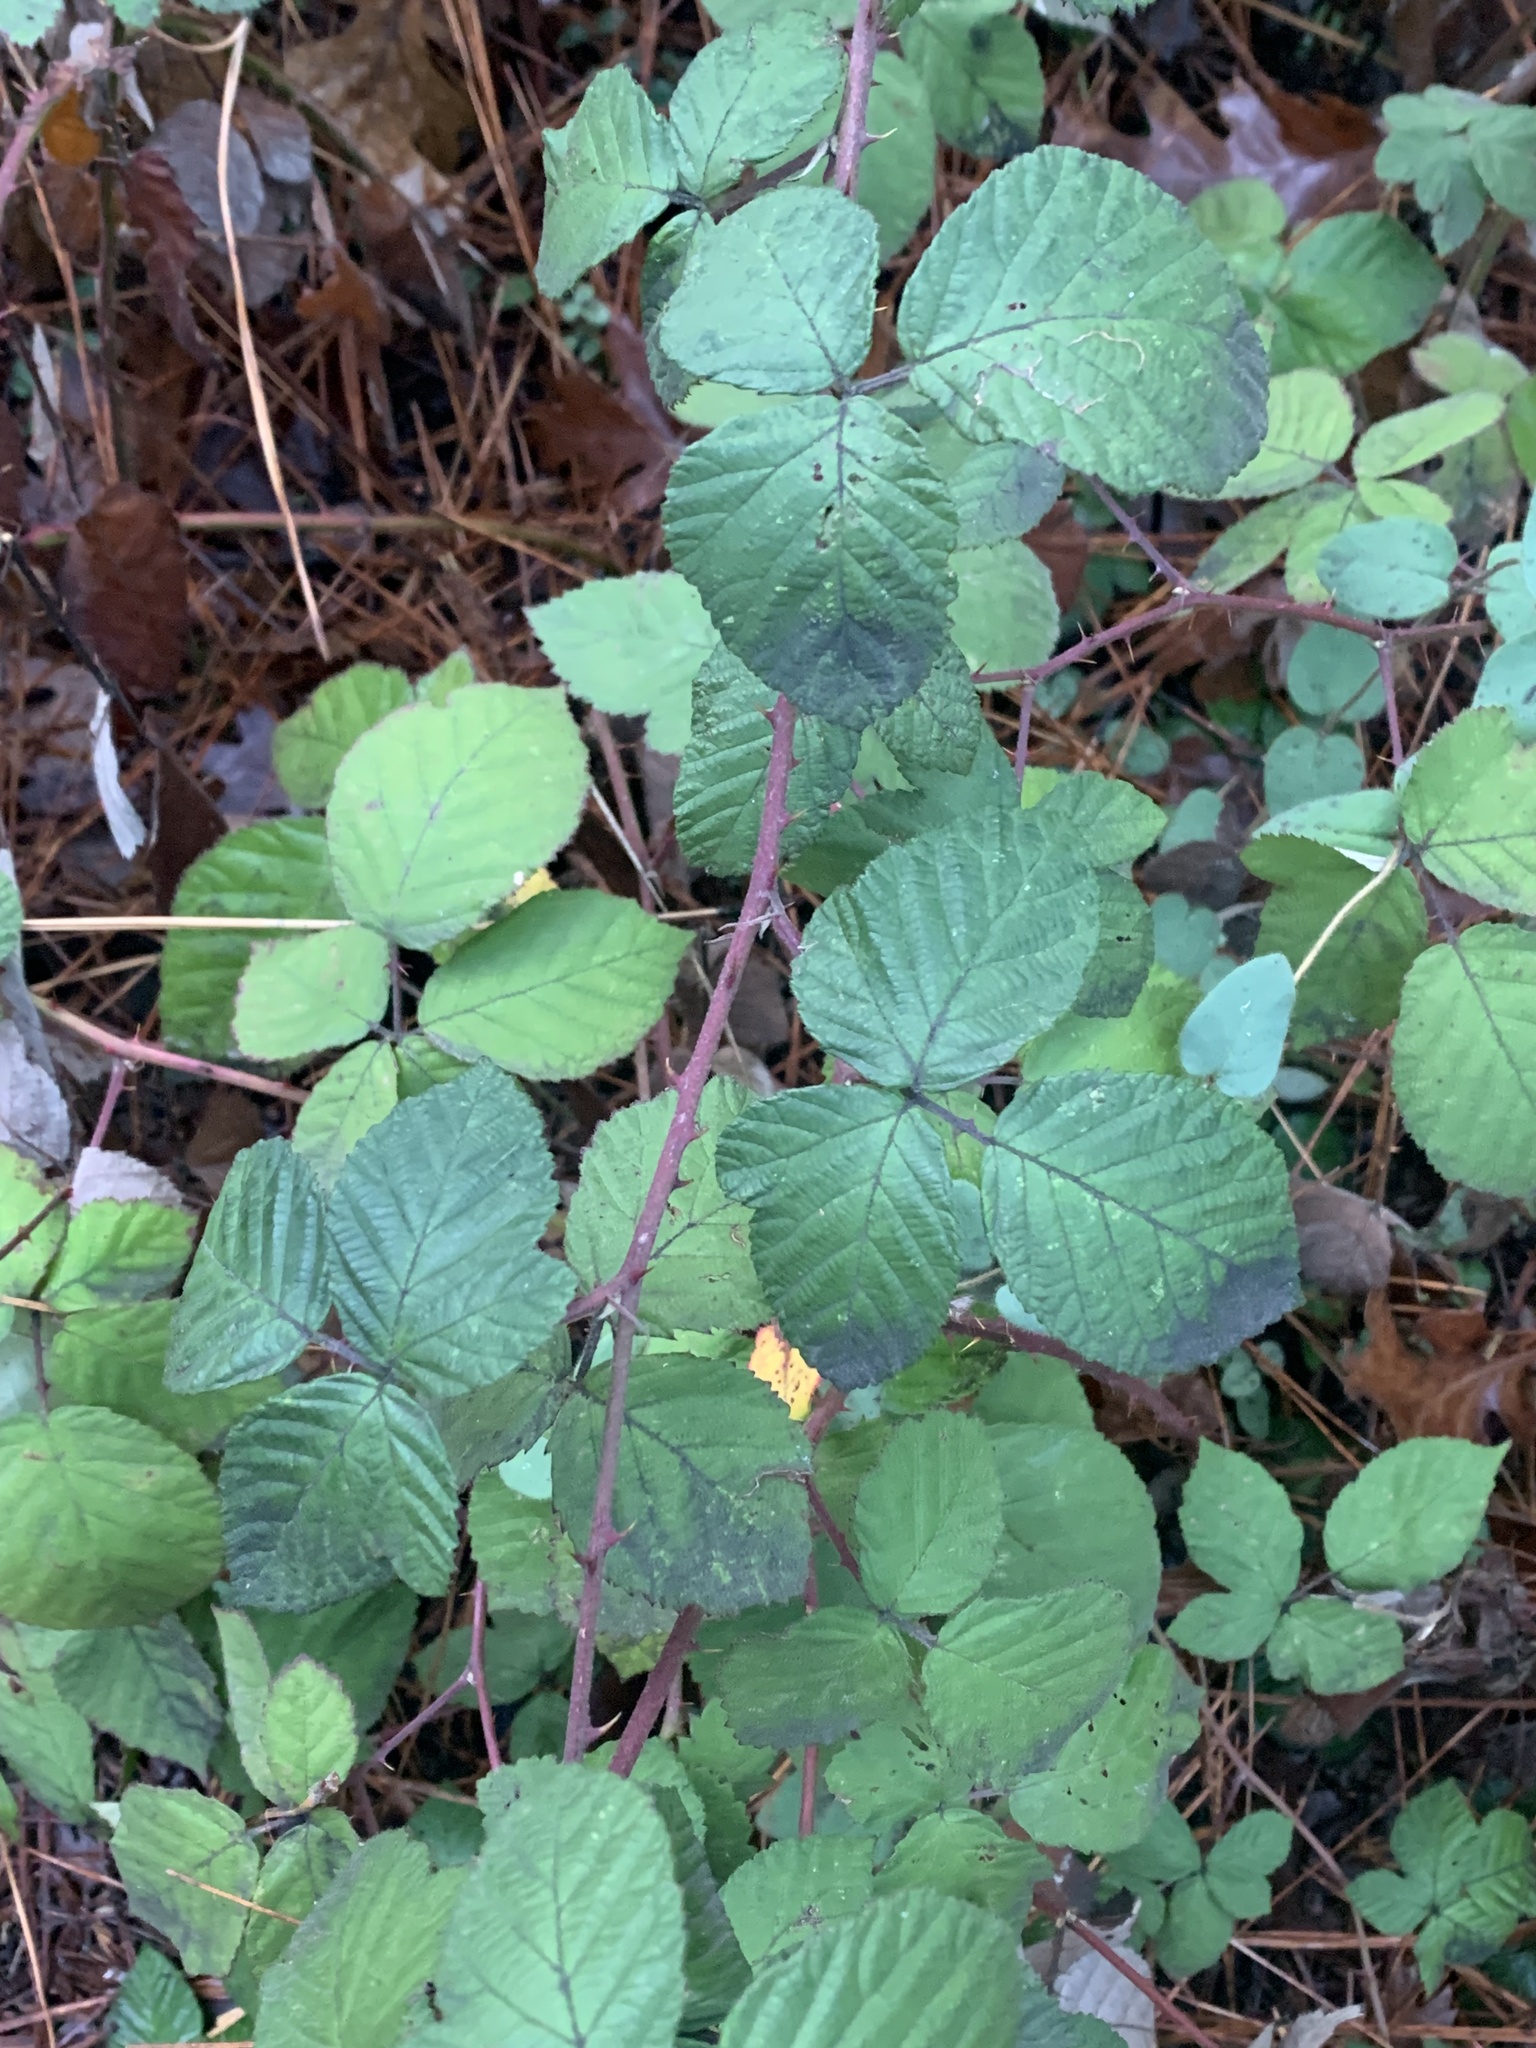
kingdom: Plantae
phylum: Tracheophyta
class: Magnoliopsida
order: Rosales
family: Rosaceae
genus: Rubus
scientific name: Rubus armeniacus
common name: Himalayan blackberry
